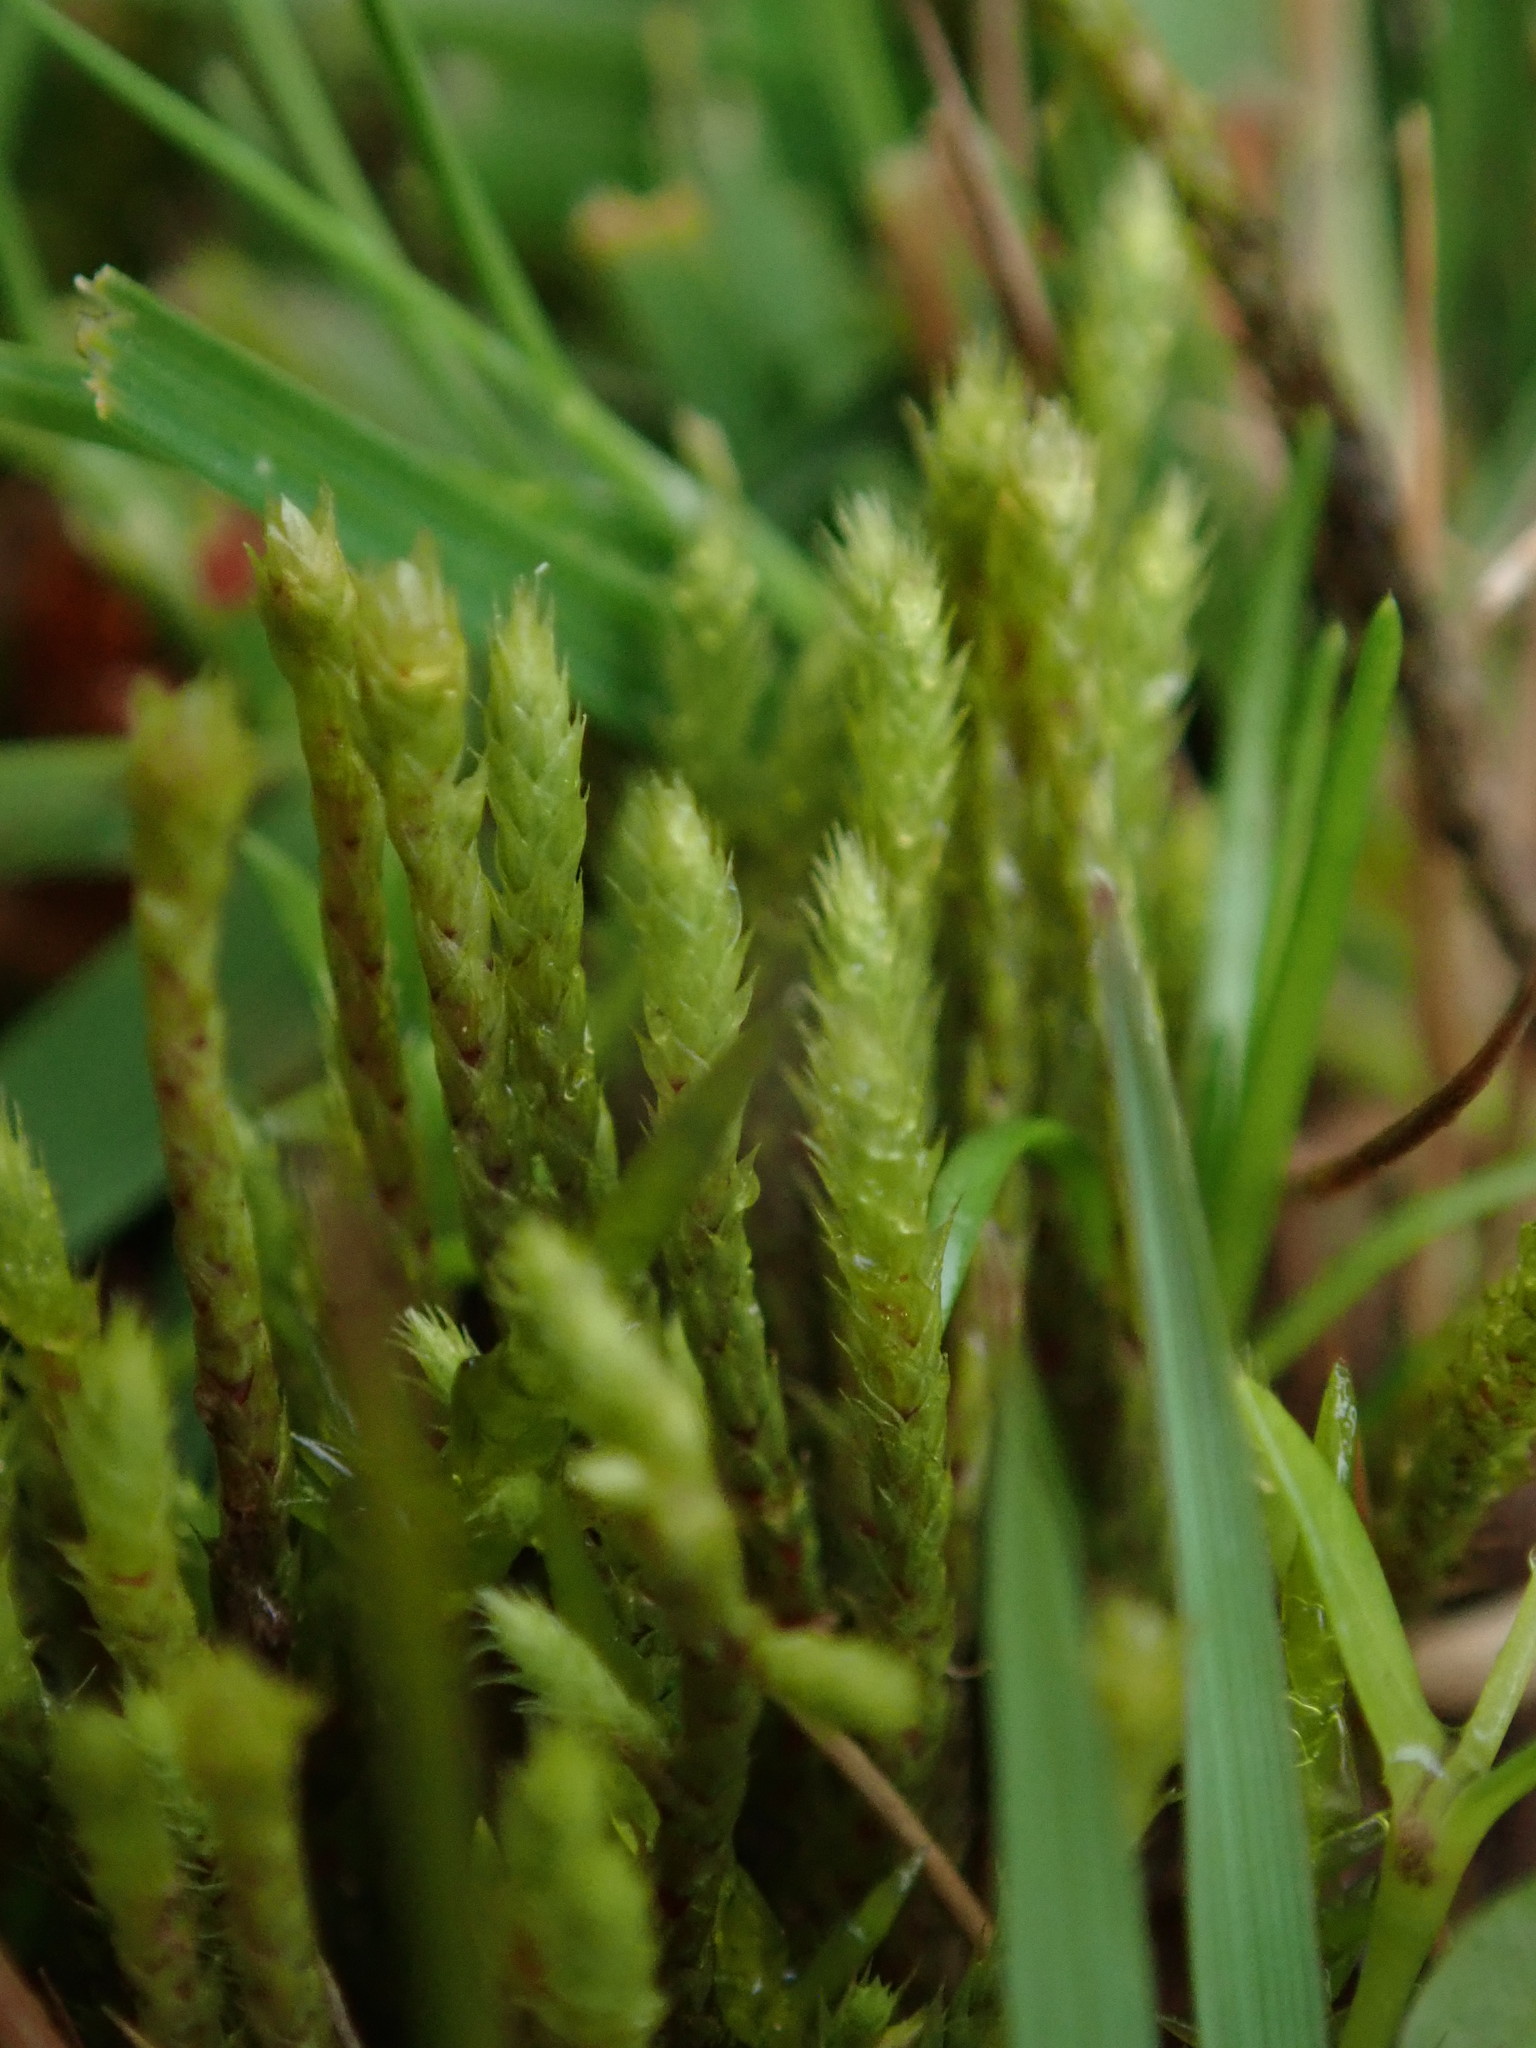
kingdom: Plantae
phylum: Bryophyta
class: Bryopsida
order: Bartramiales
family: Bartramiaceae
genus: Philonotis
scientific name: Philonotis fontana
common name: Fountain apple-moss
